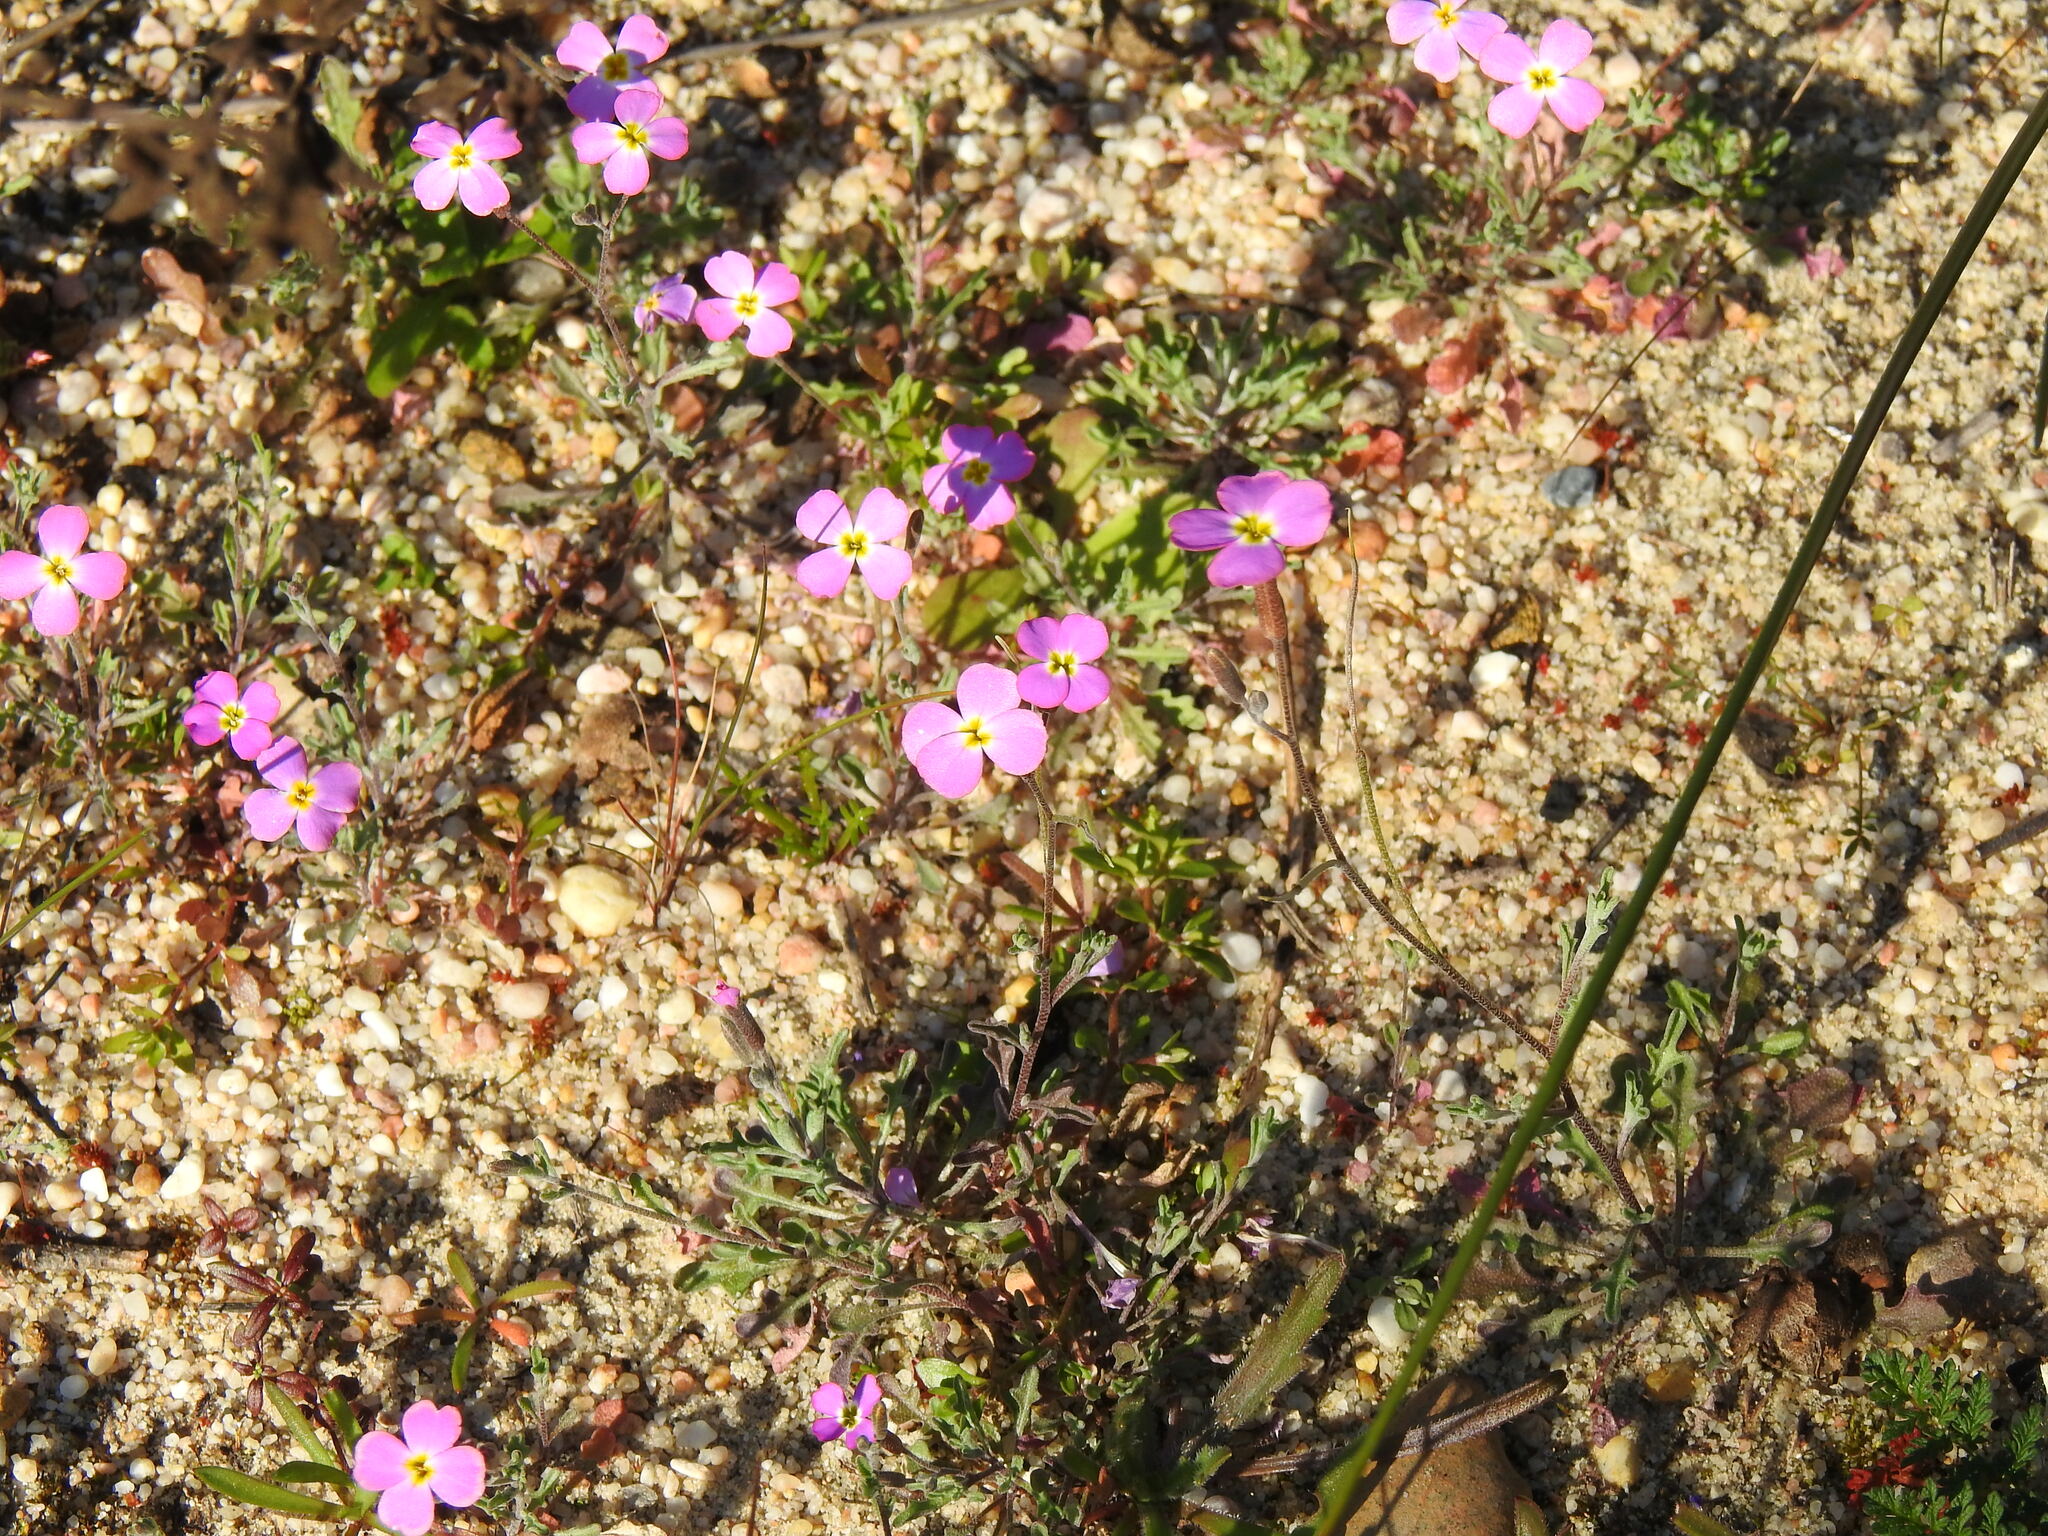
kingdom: Plantae
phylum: Tracheophyta
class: Magnoliopsida
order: Brassicales
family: Brassicaceae
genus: Marcuskochia
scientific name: Marcuskochia triloba
